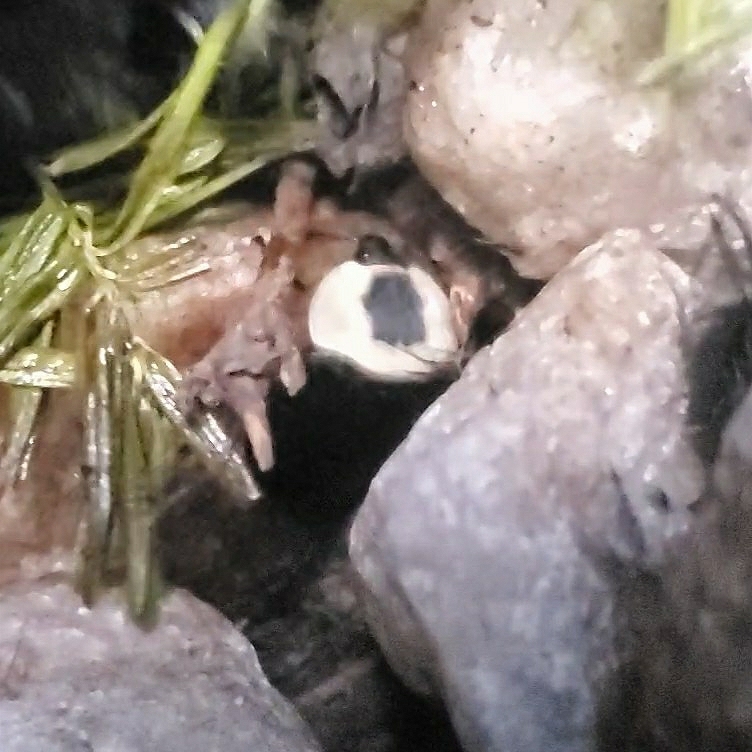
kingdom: Animalia
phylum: Arthropoda
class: Insecta
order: Coleoptera
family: Staphylinidae
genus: Necrophila
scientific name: Necrophila americana
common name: American carrion beetle
